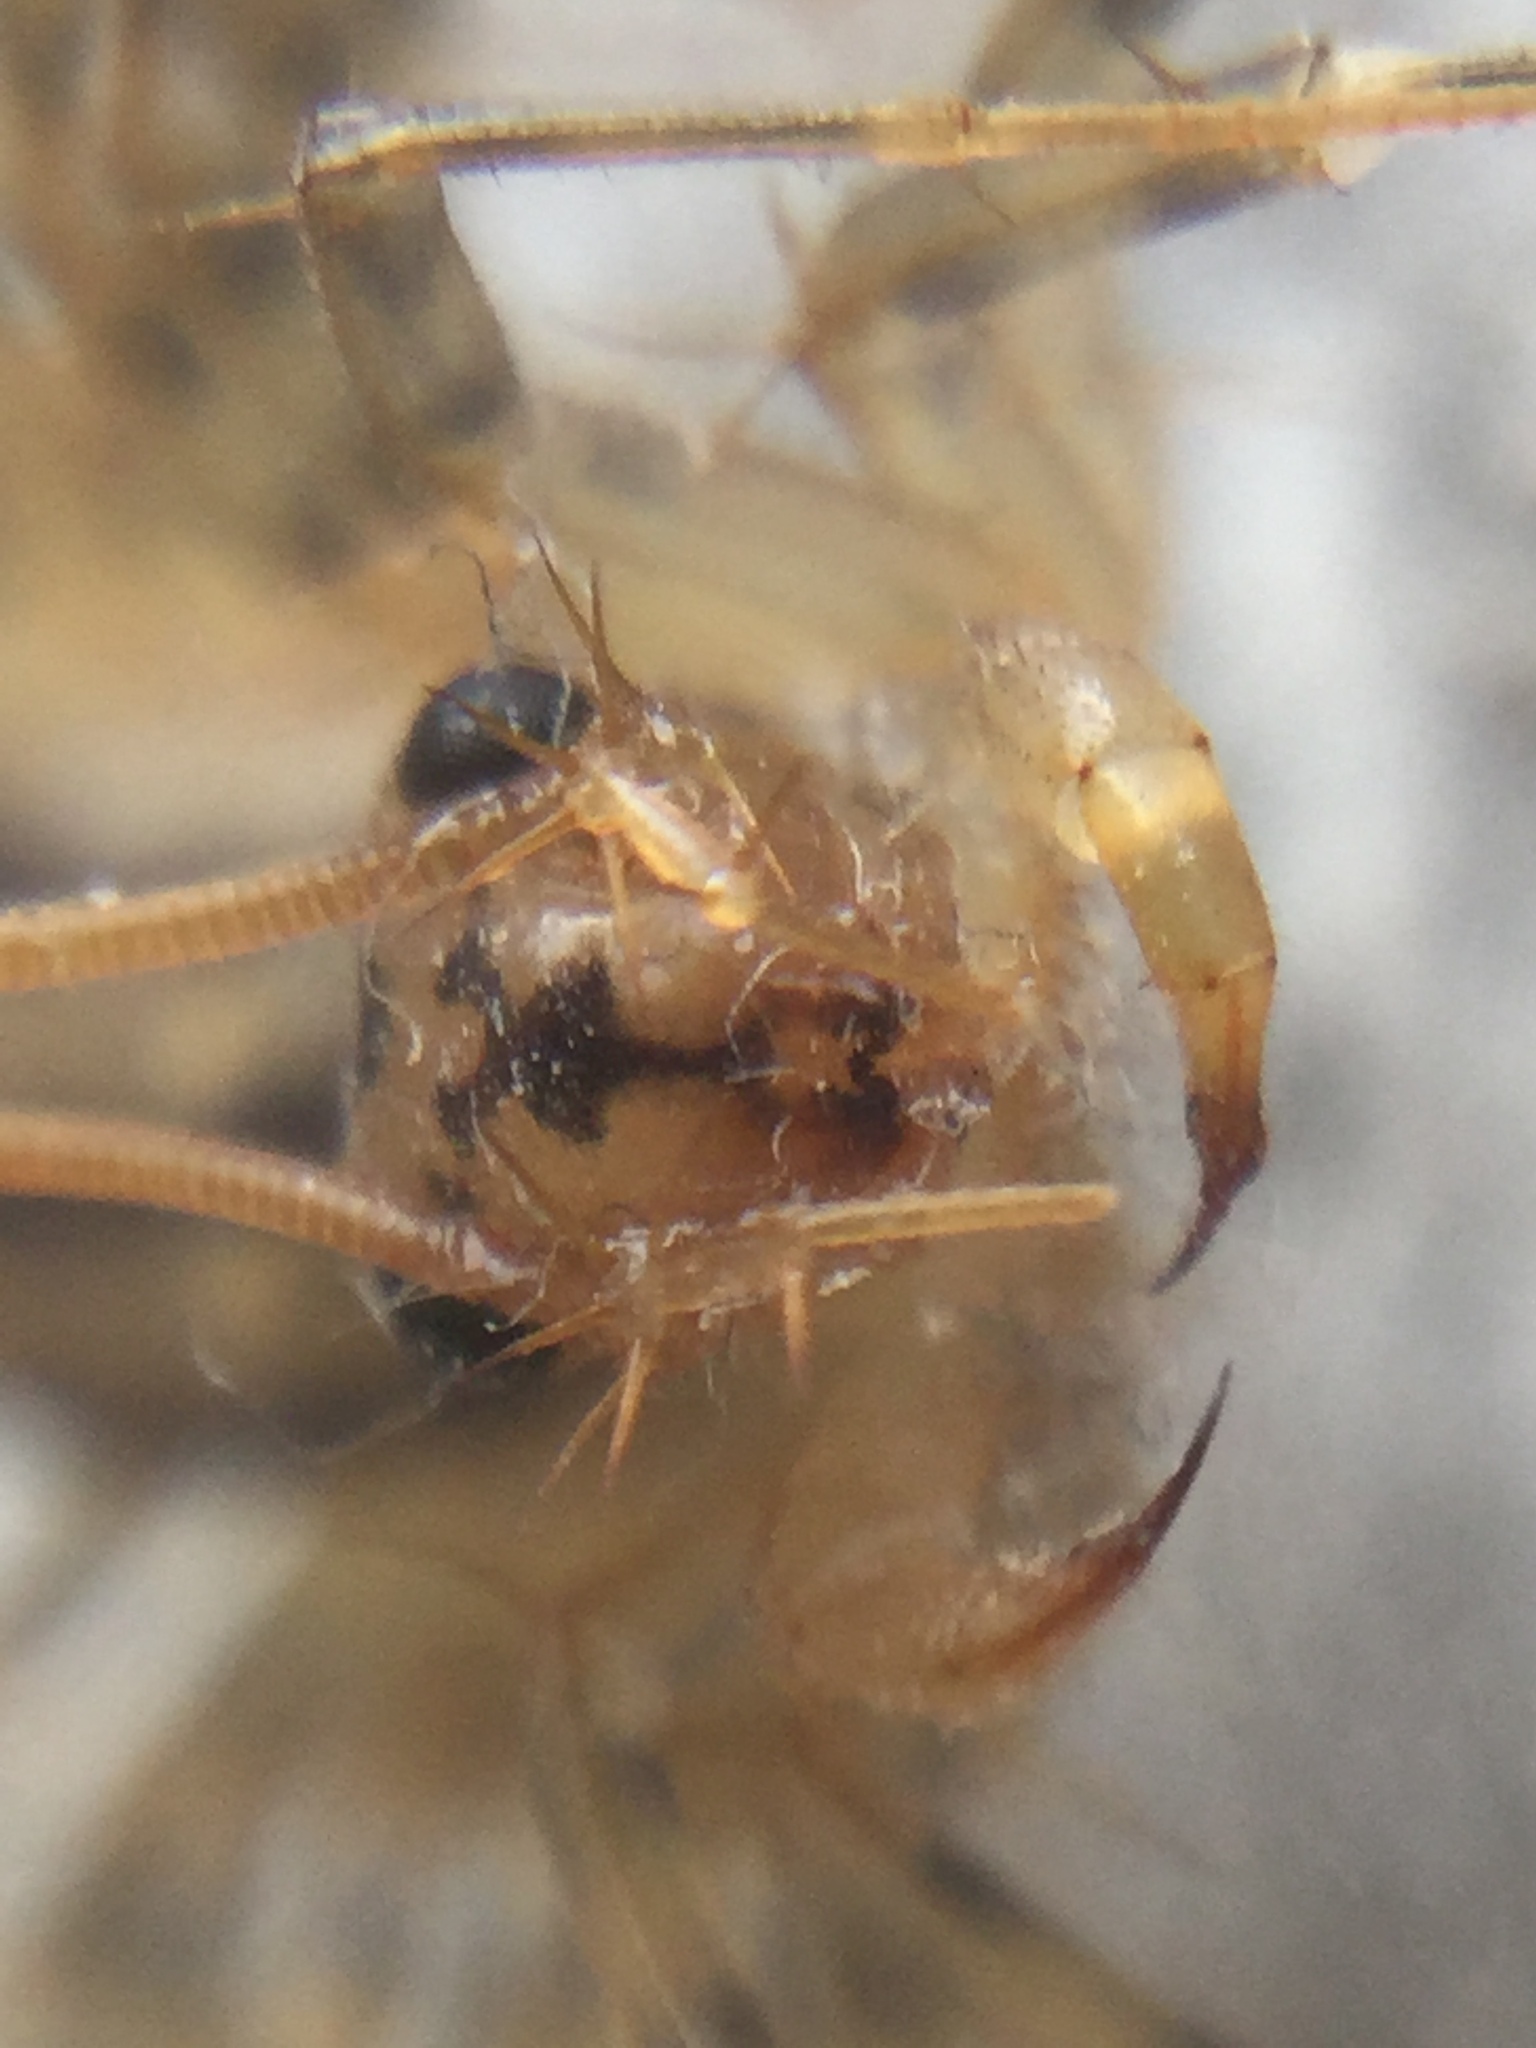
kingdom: Animalia
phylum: Arthropoda
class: Chilopoda
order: Scutigeromorpha
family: Scutigeridae
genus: Scutigera
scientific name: Scutigera coleoptrata
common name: House centipede
